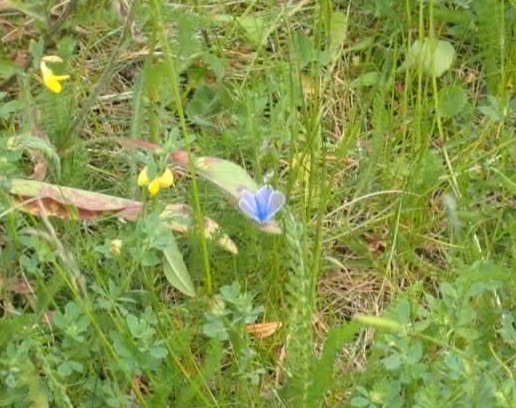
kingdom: Animalia
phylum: Arthropoda
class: Insecta
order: Lepidoptera
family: Lycaenidae
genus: Polyommatus
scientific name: Polyommatus icarus
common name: Common blue
